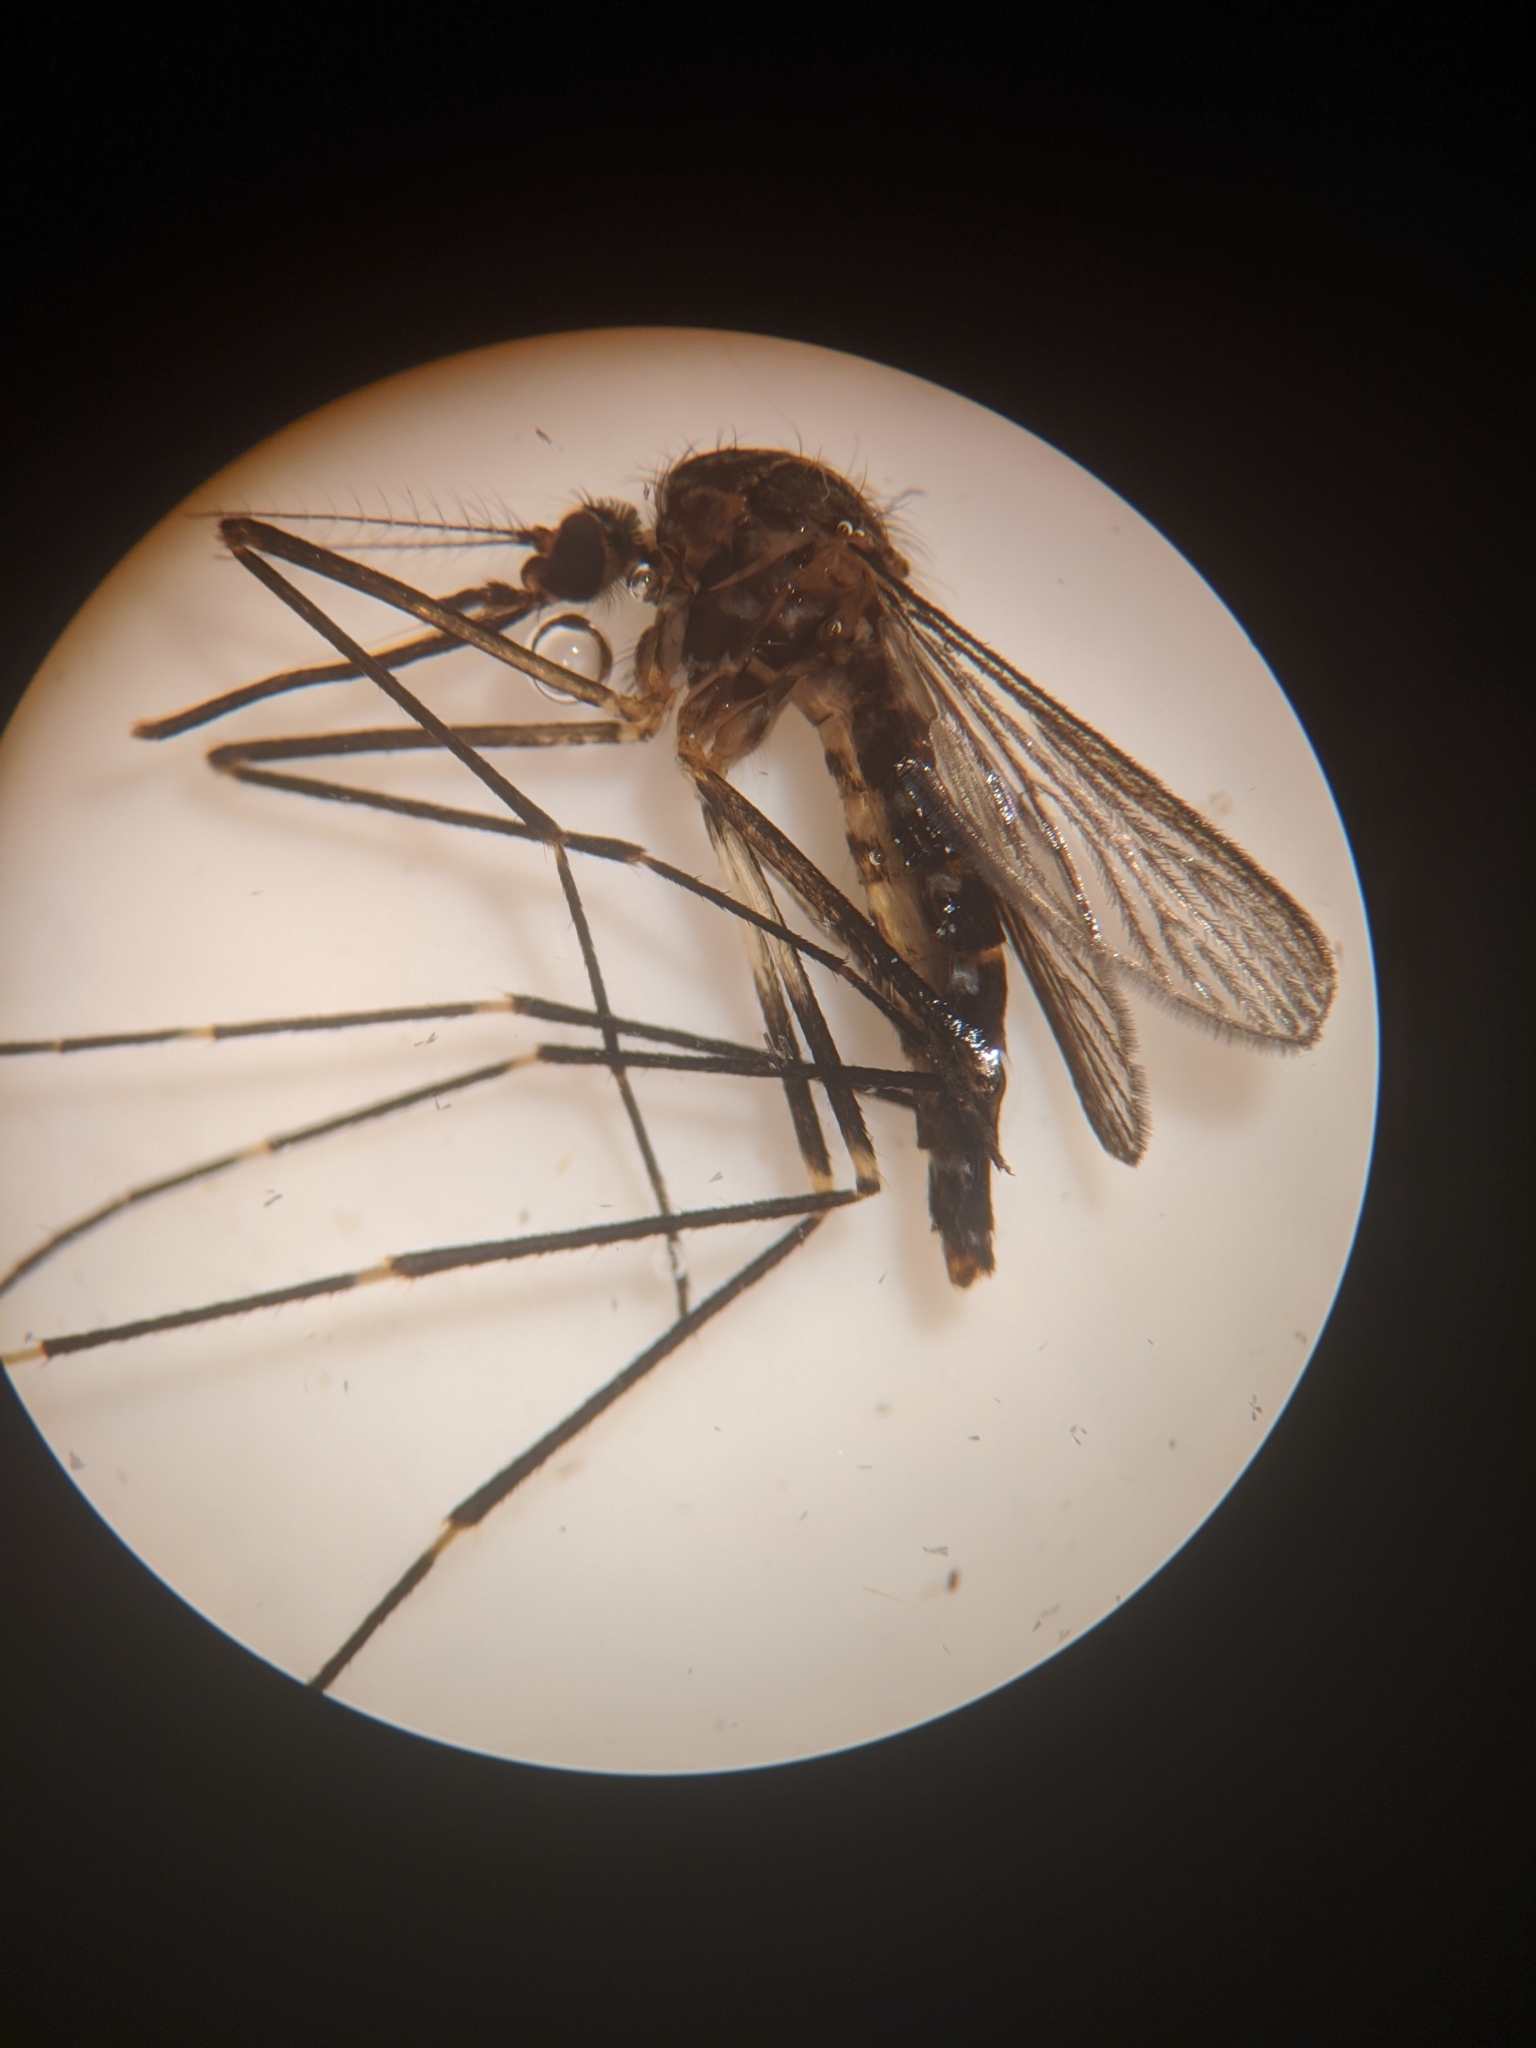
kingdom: Animalia
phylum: Arthropoda
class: Insecta
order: Diptera
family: Culicidae
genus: Aedes
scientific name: Aedes japonicus
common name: Asian bush mosquito
